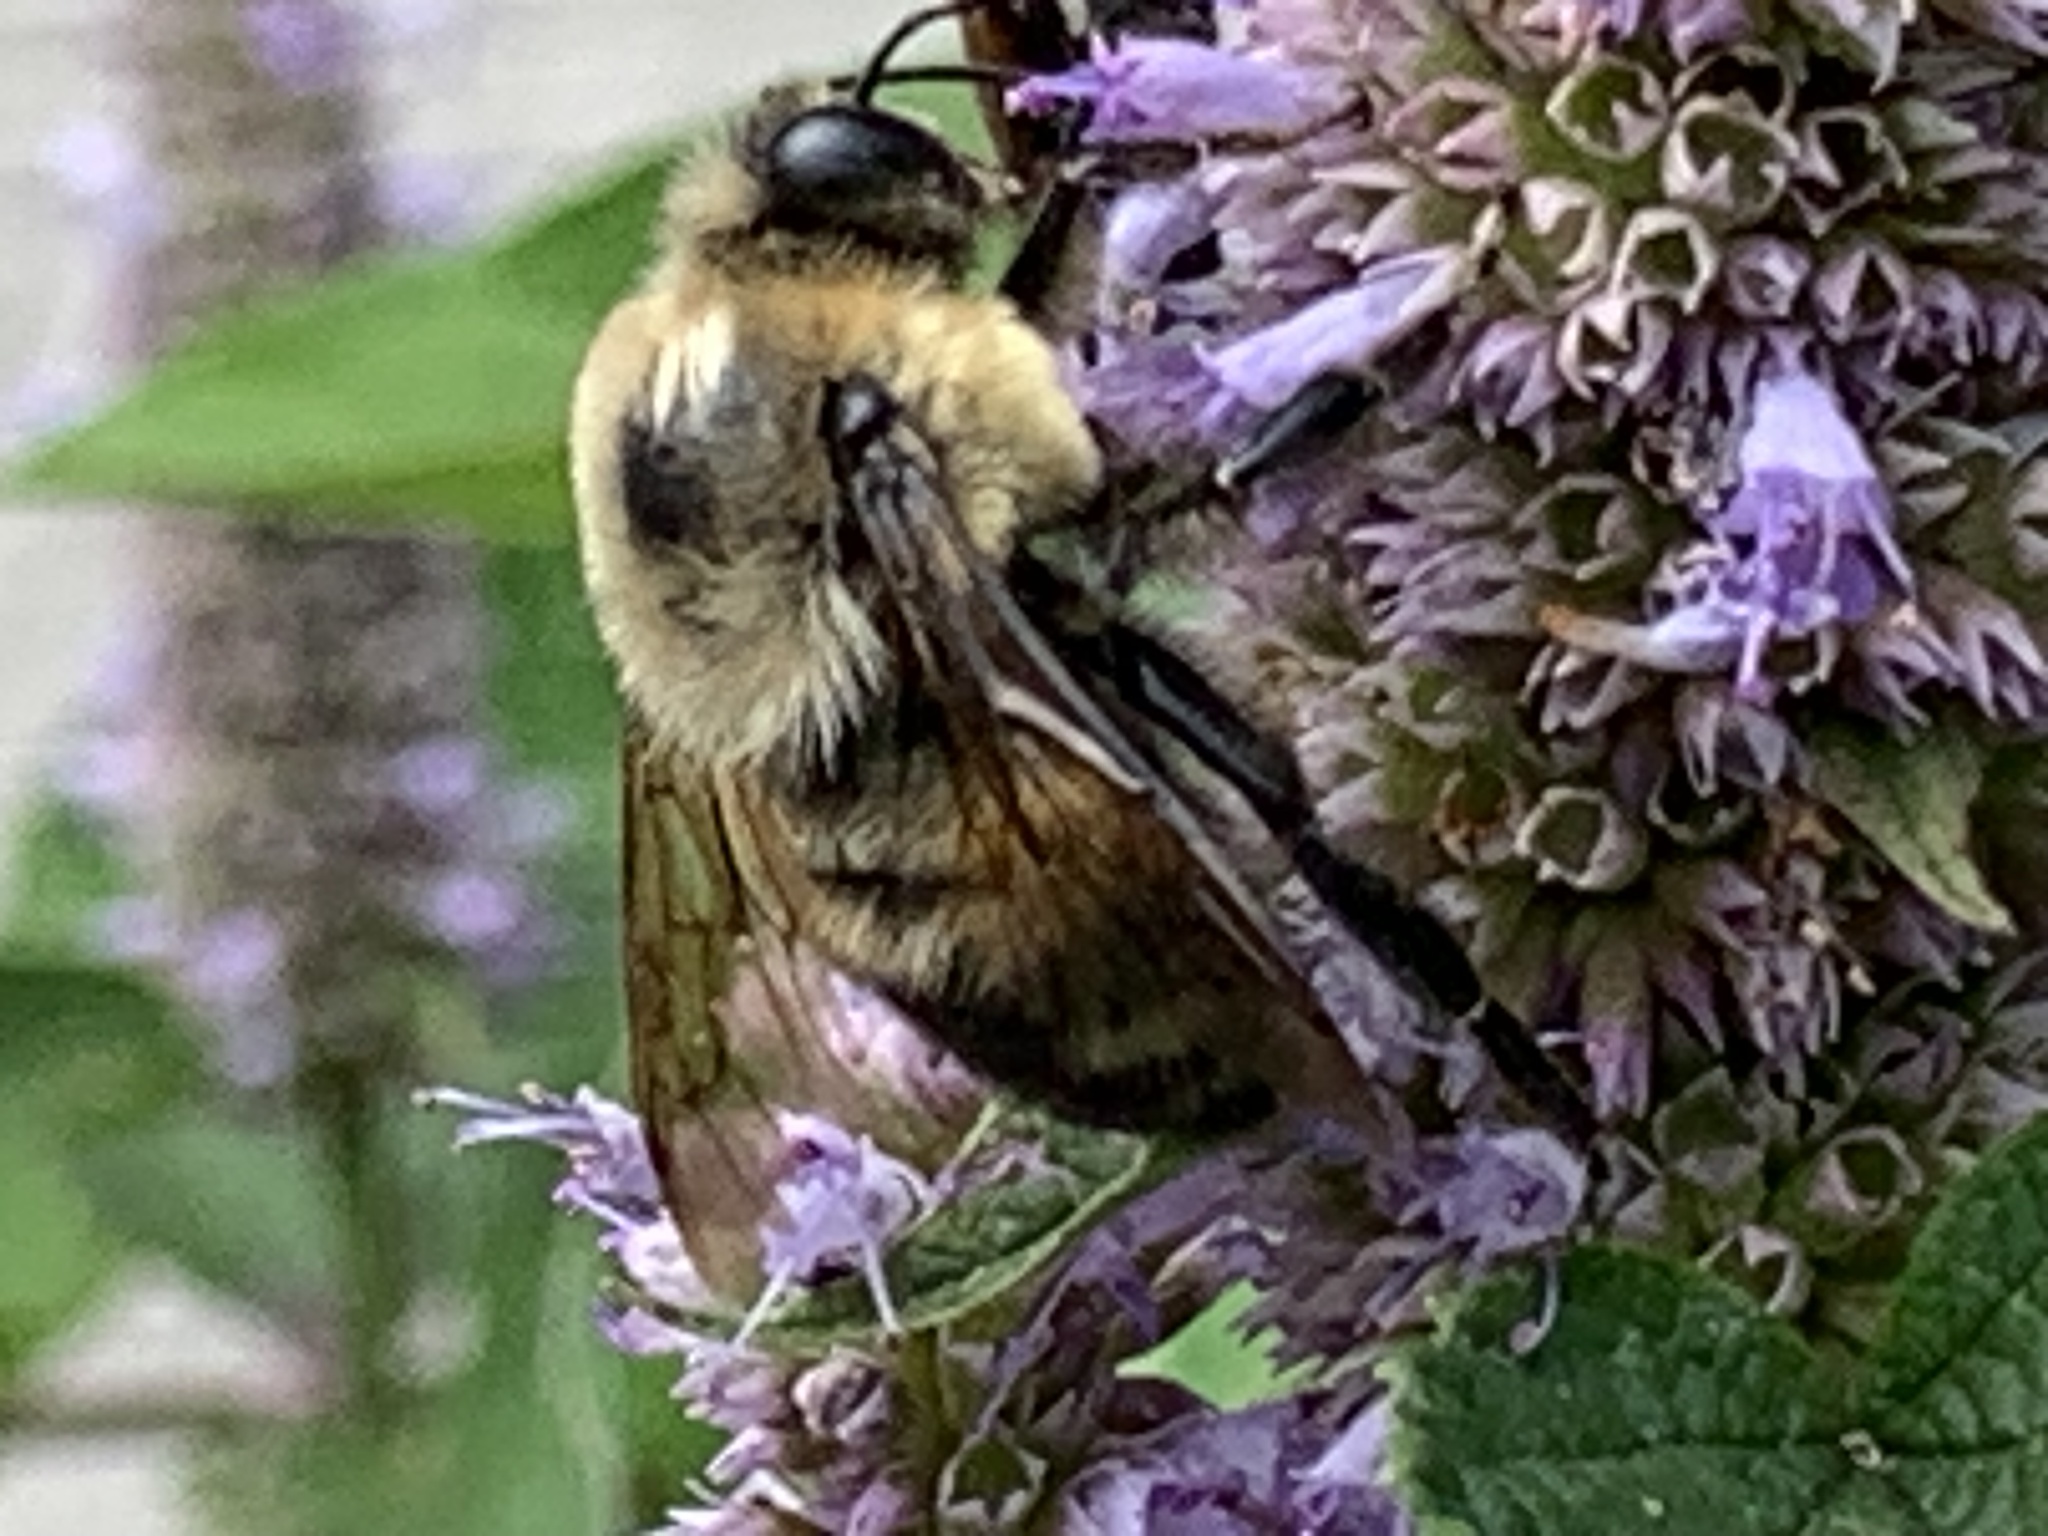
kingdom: Animalia
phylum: Arthropoda
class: Insecta
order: Hymenoptera
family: Apidae
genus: Bombus
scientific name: Bombus griseocollis
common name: Brown-belted bumble bee
